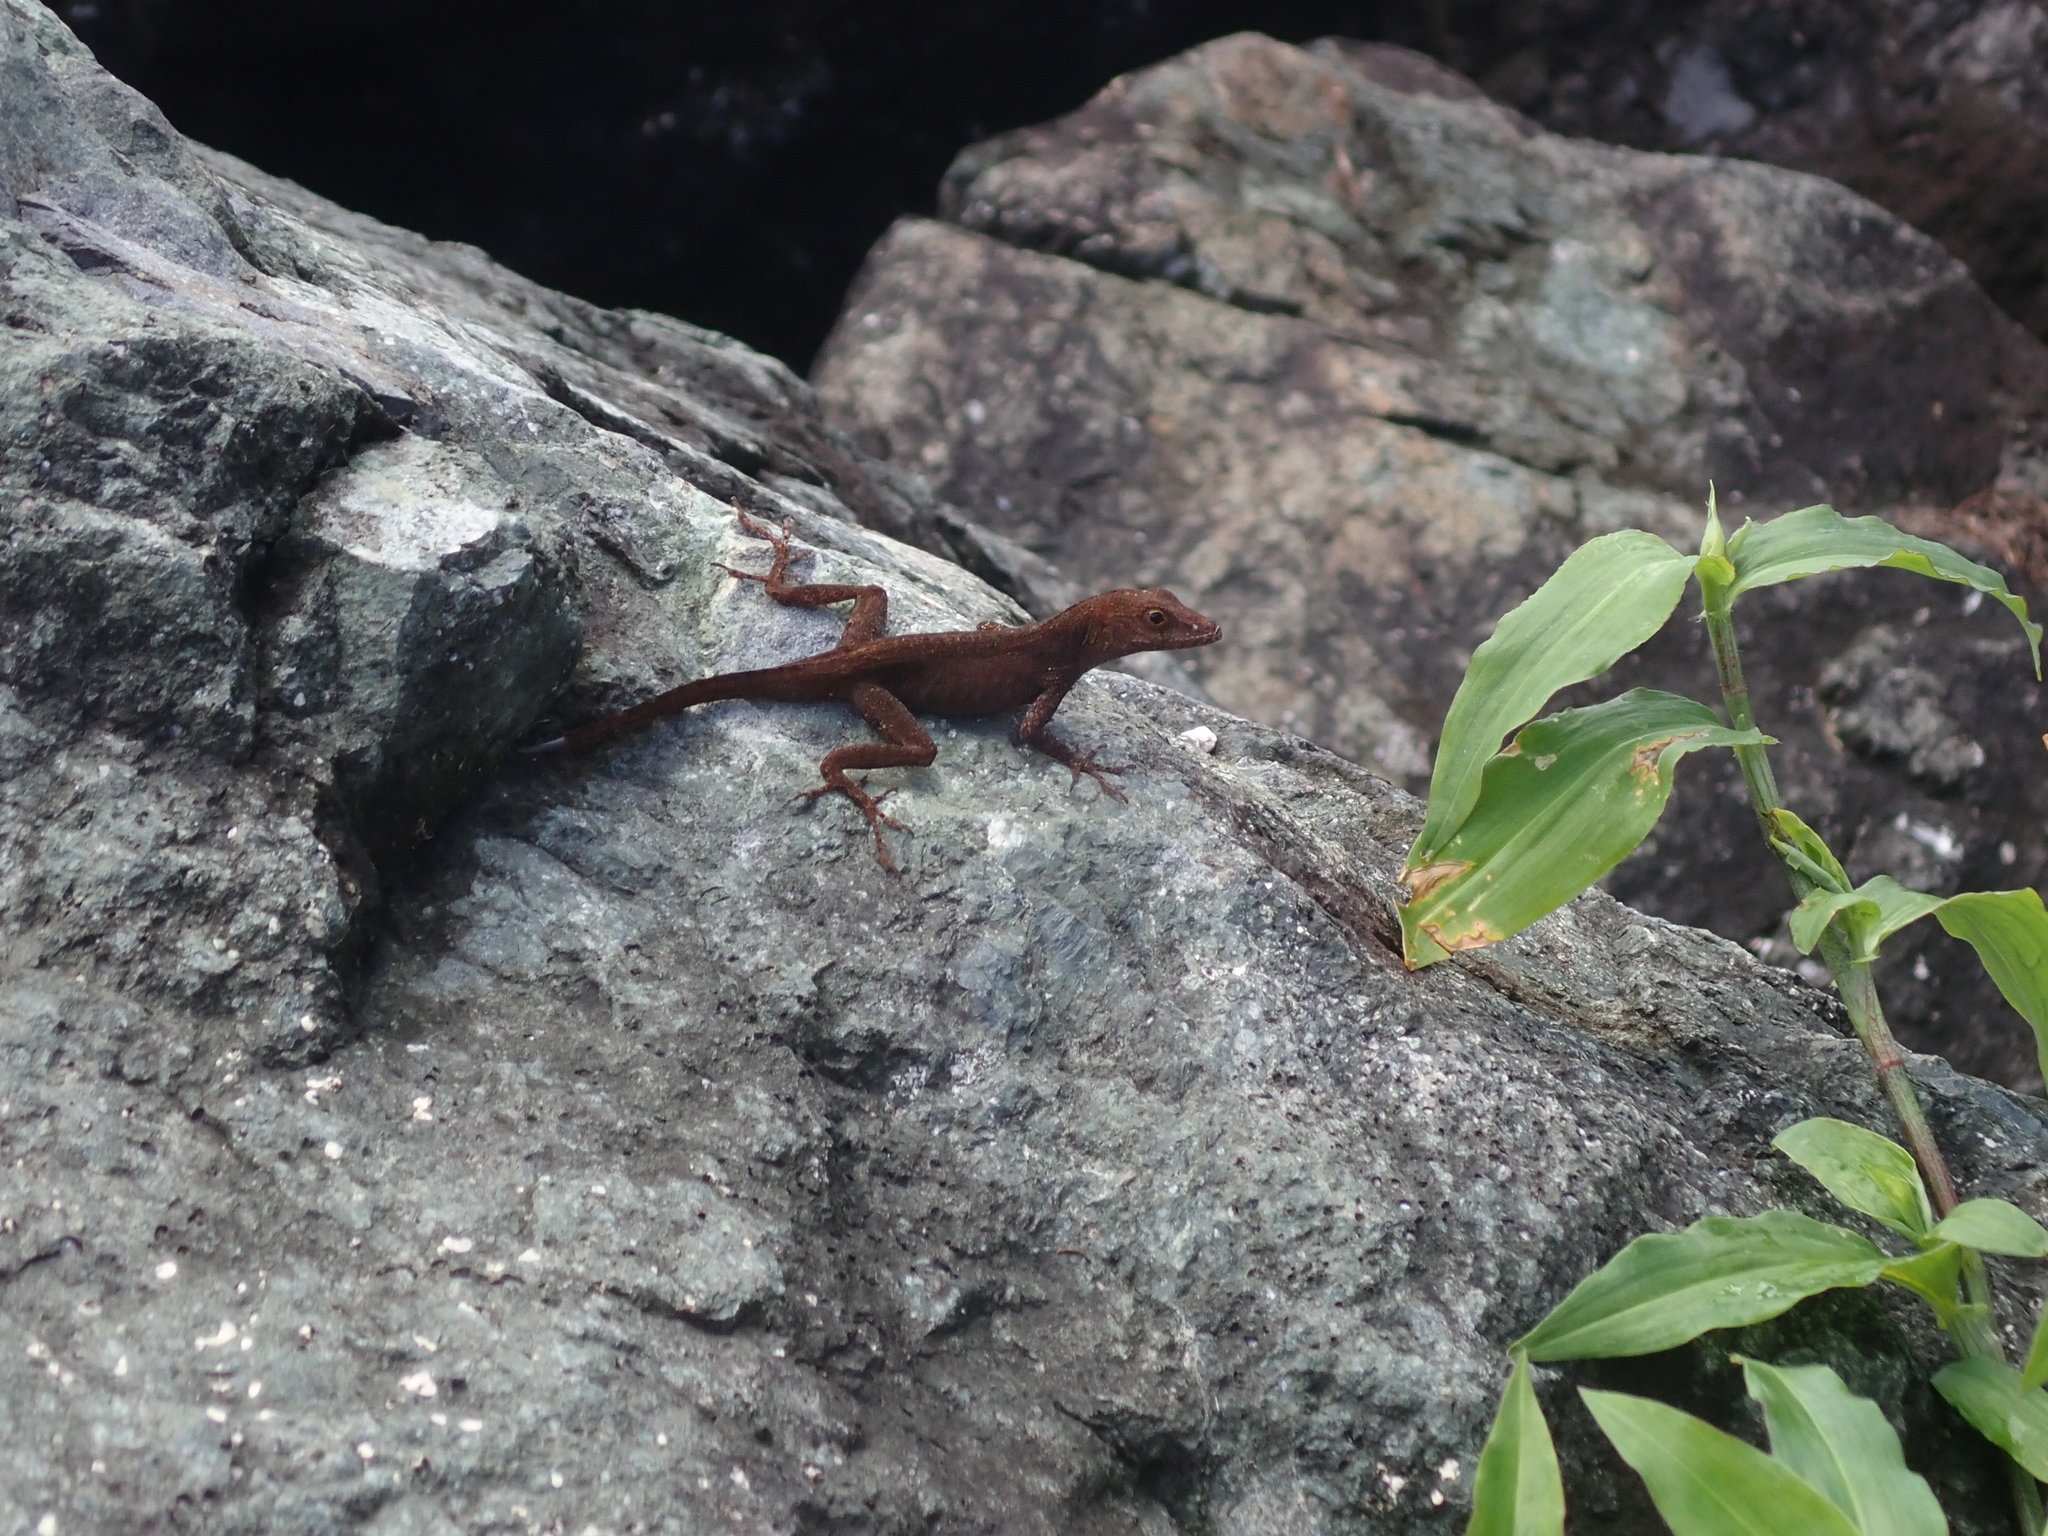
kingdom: Animalia
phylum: Chordata
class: Squamata
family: Dactyloidae
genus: Anolis
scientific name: Anolis cristatellus
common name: Crested anole
